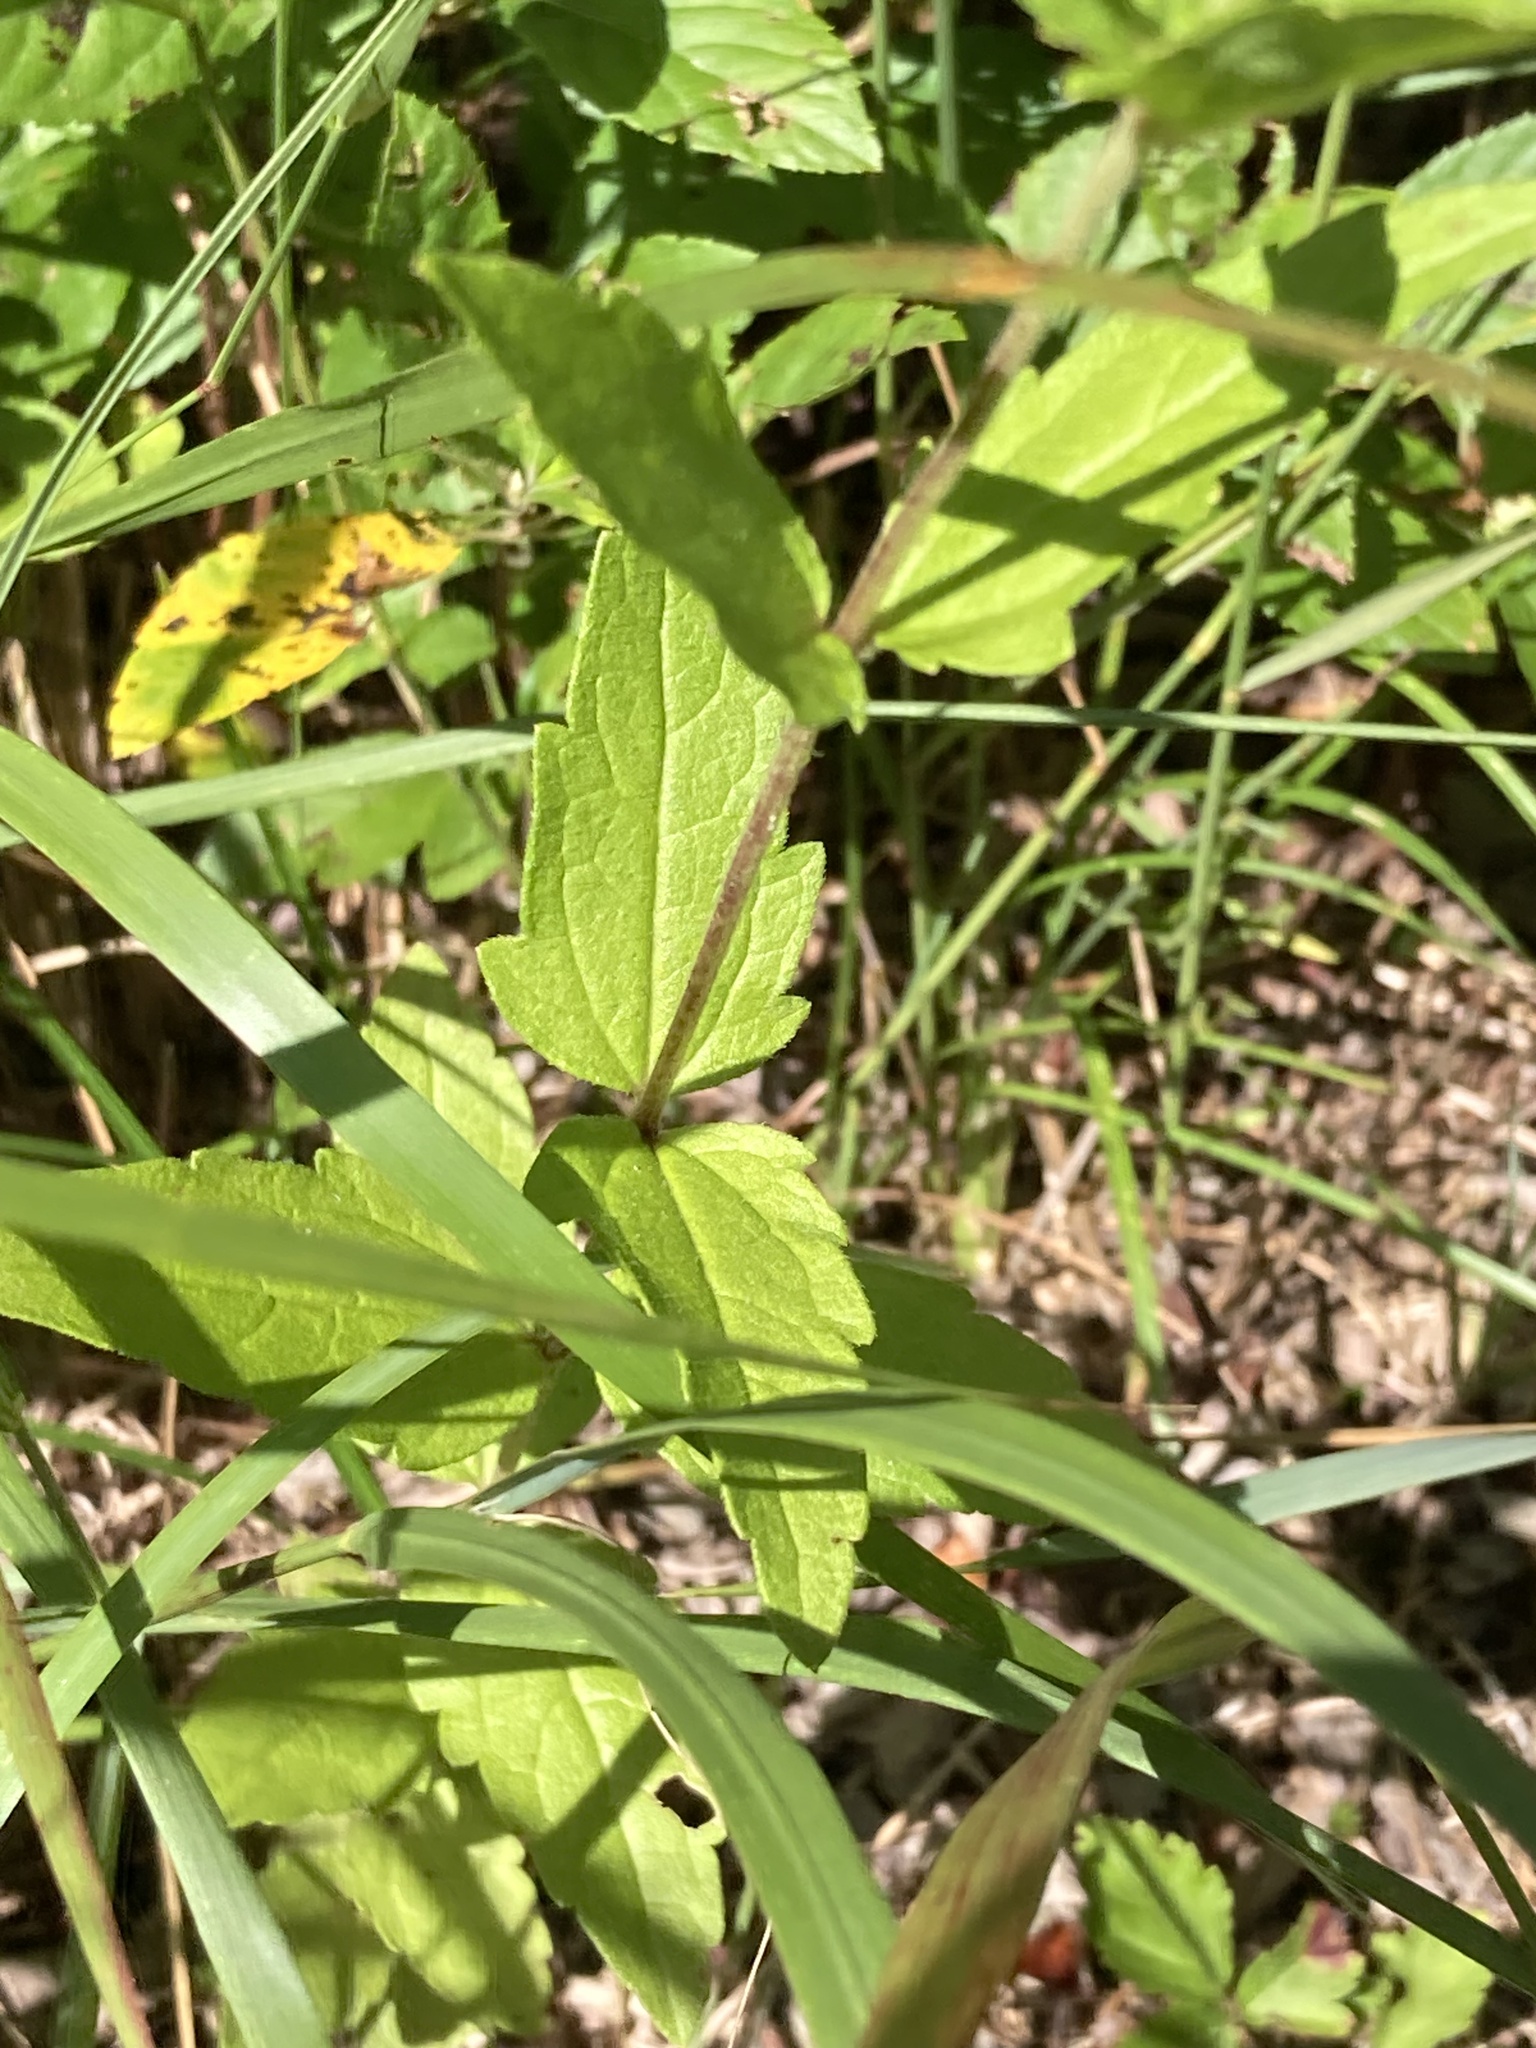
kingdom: Plantae
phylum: Tracheophyta
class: Magnoliopsida
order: Asterales
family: Asteraceae
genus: Eupatorium
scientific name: Eupatorium pilosum
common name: Rough boneset
